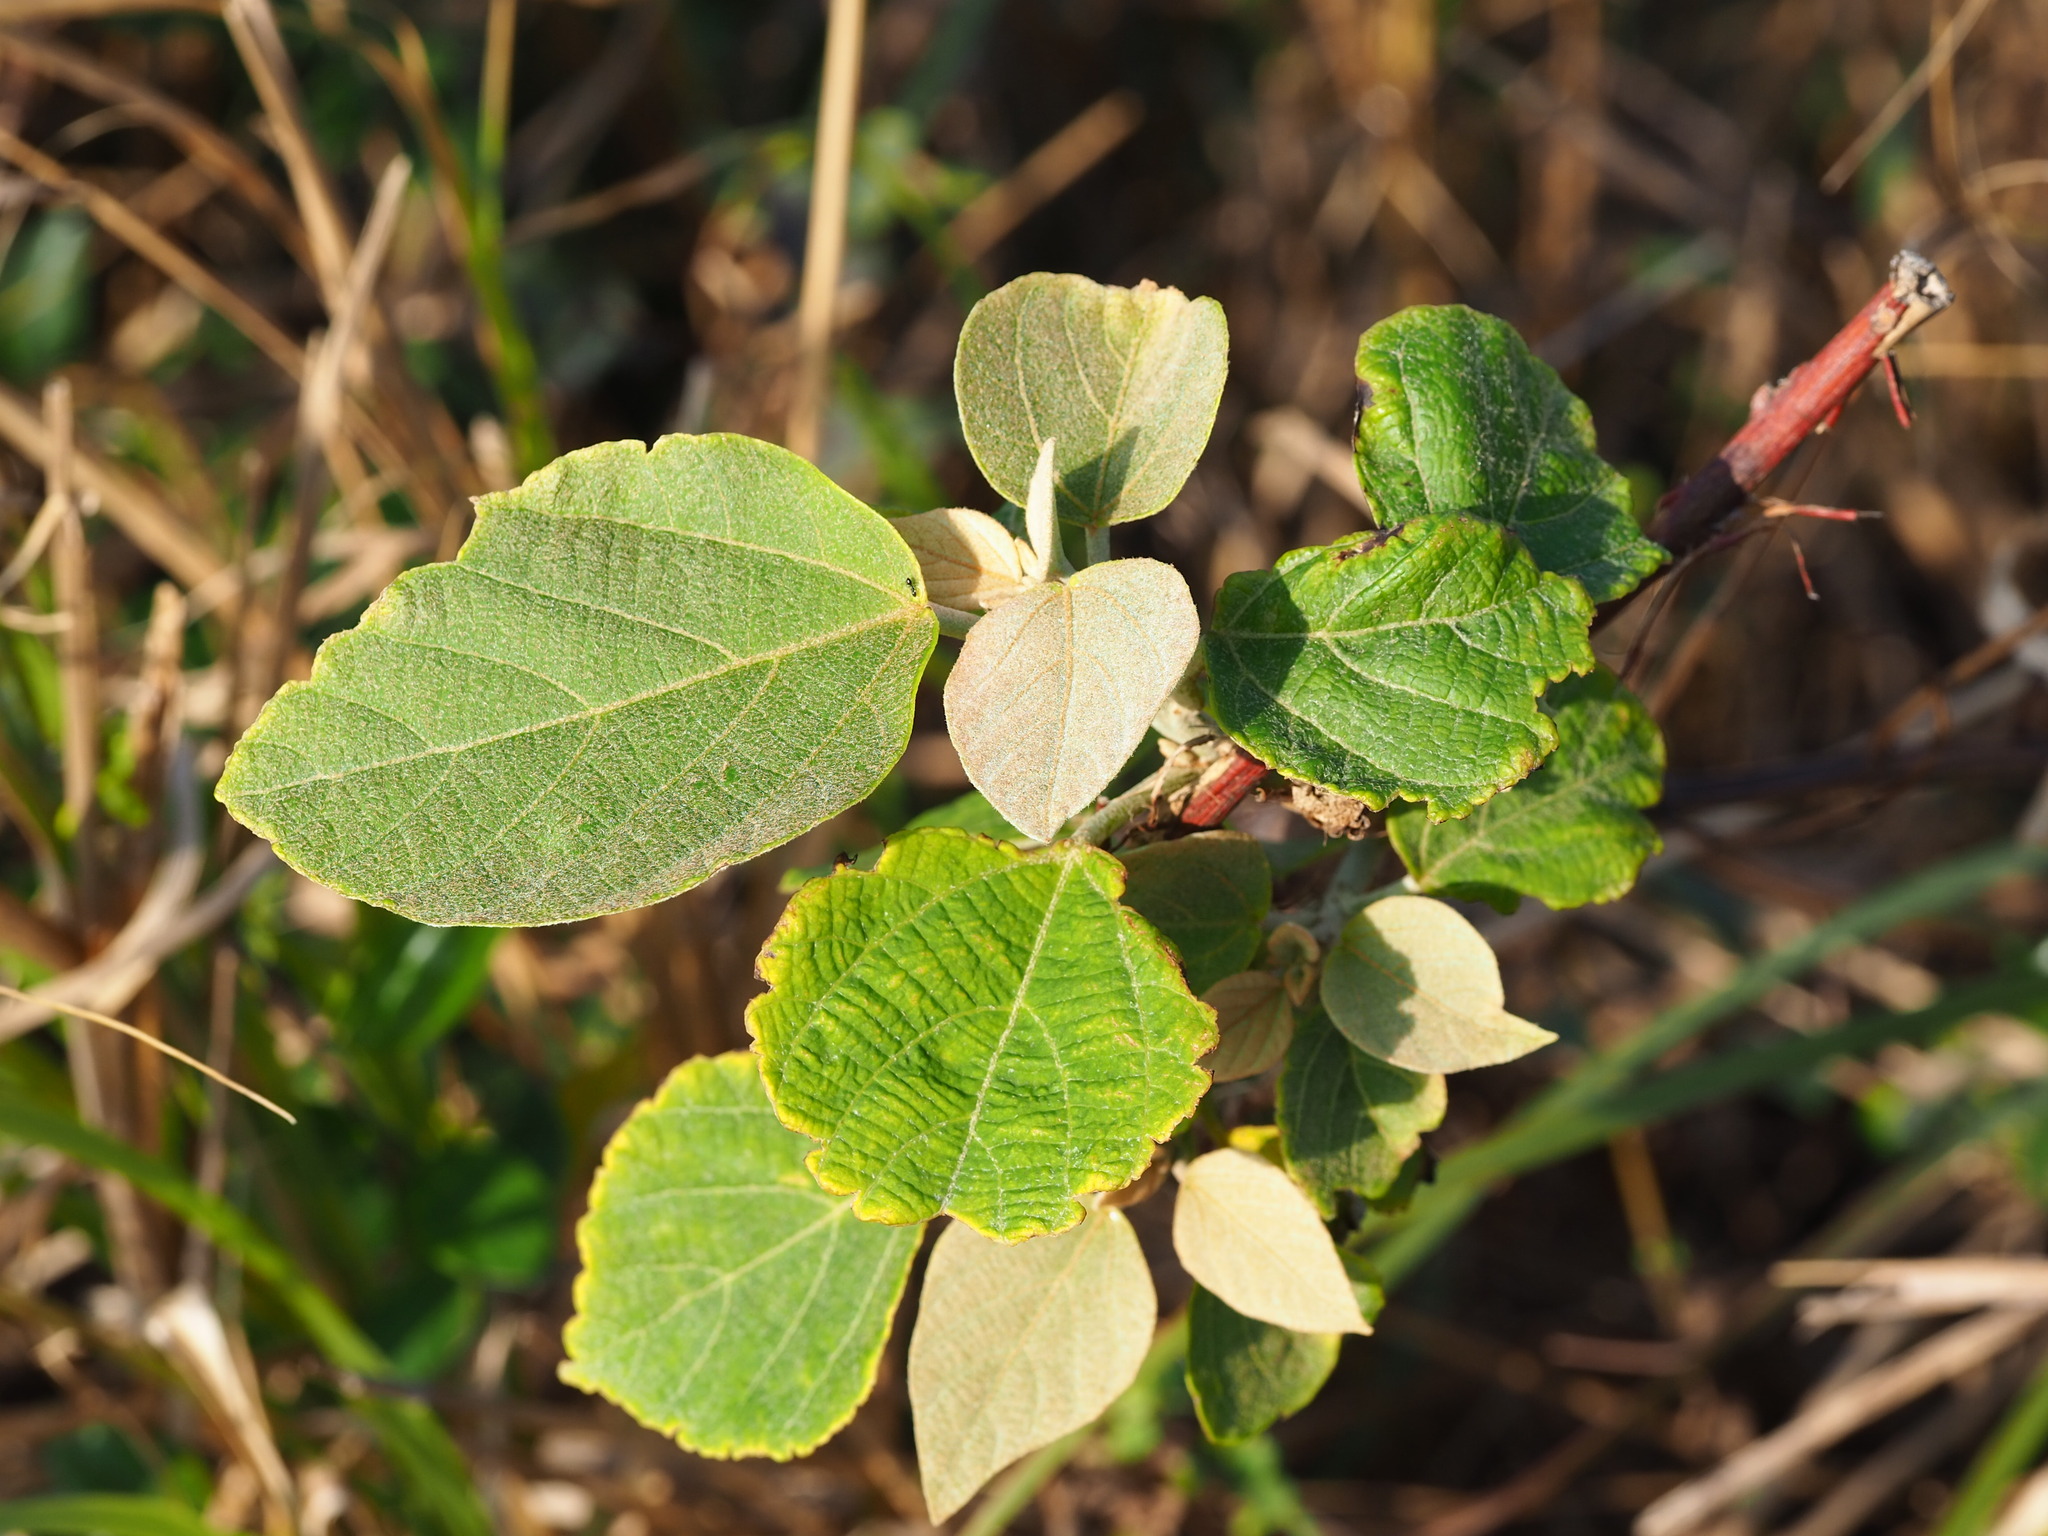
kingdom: Plantae
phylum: Tracheophyta
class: Magnoliopsida
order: Malpighiales
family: Euphorbiaceae
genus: Mallotus
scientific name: Mallotus japonicus
